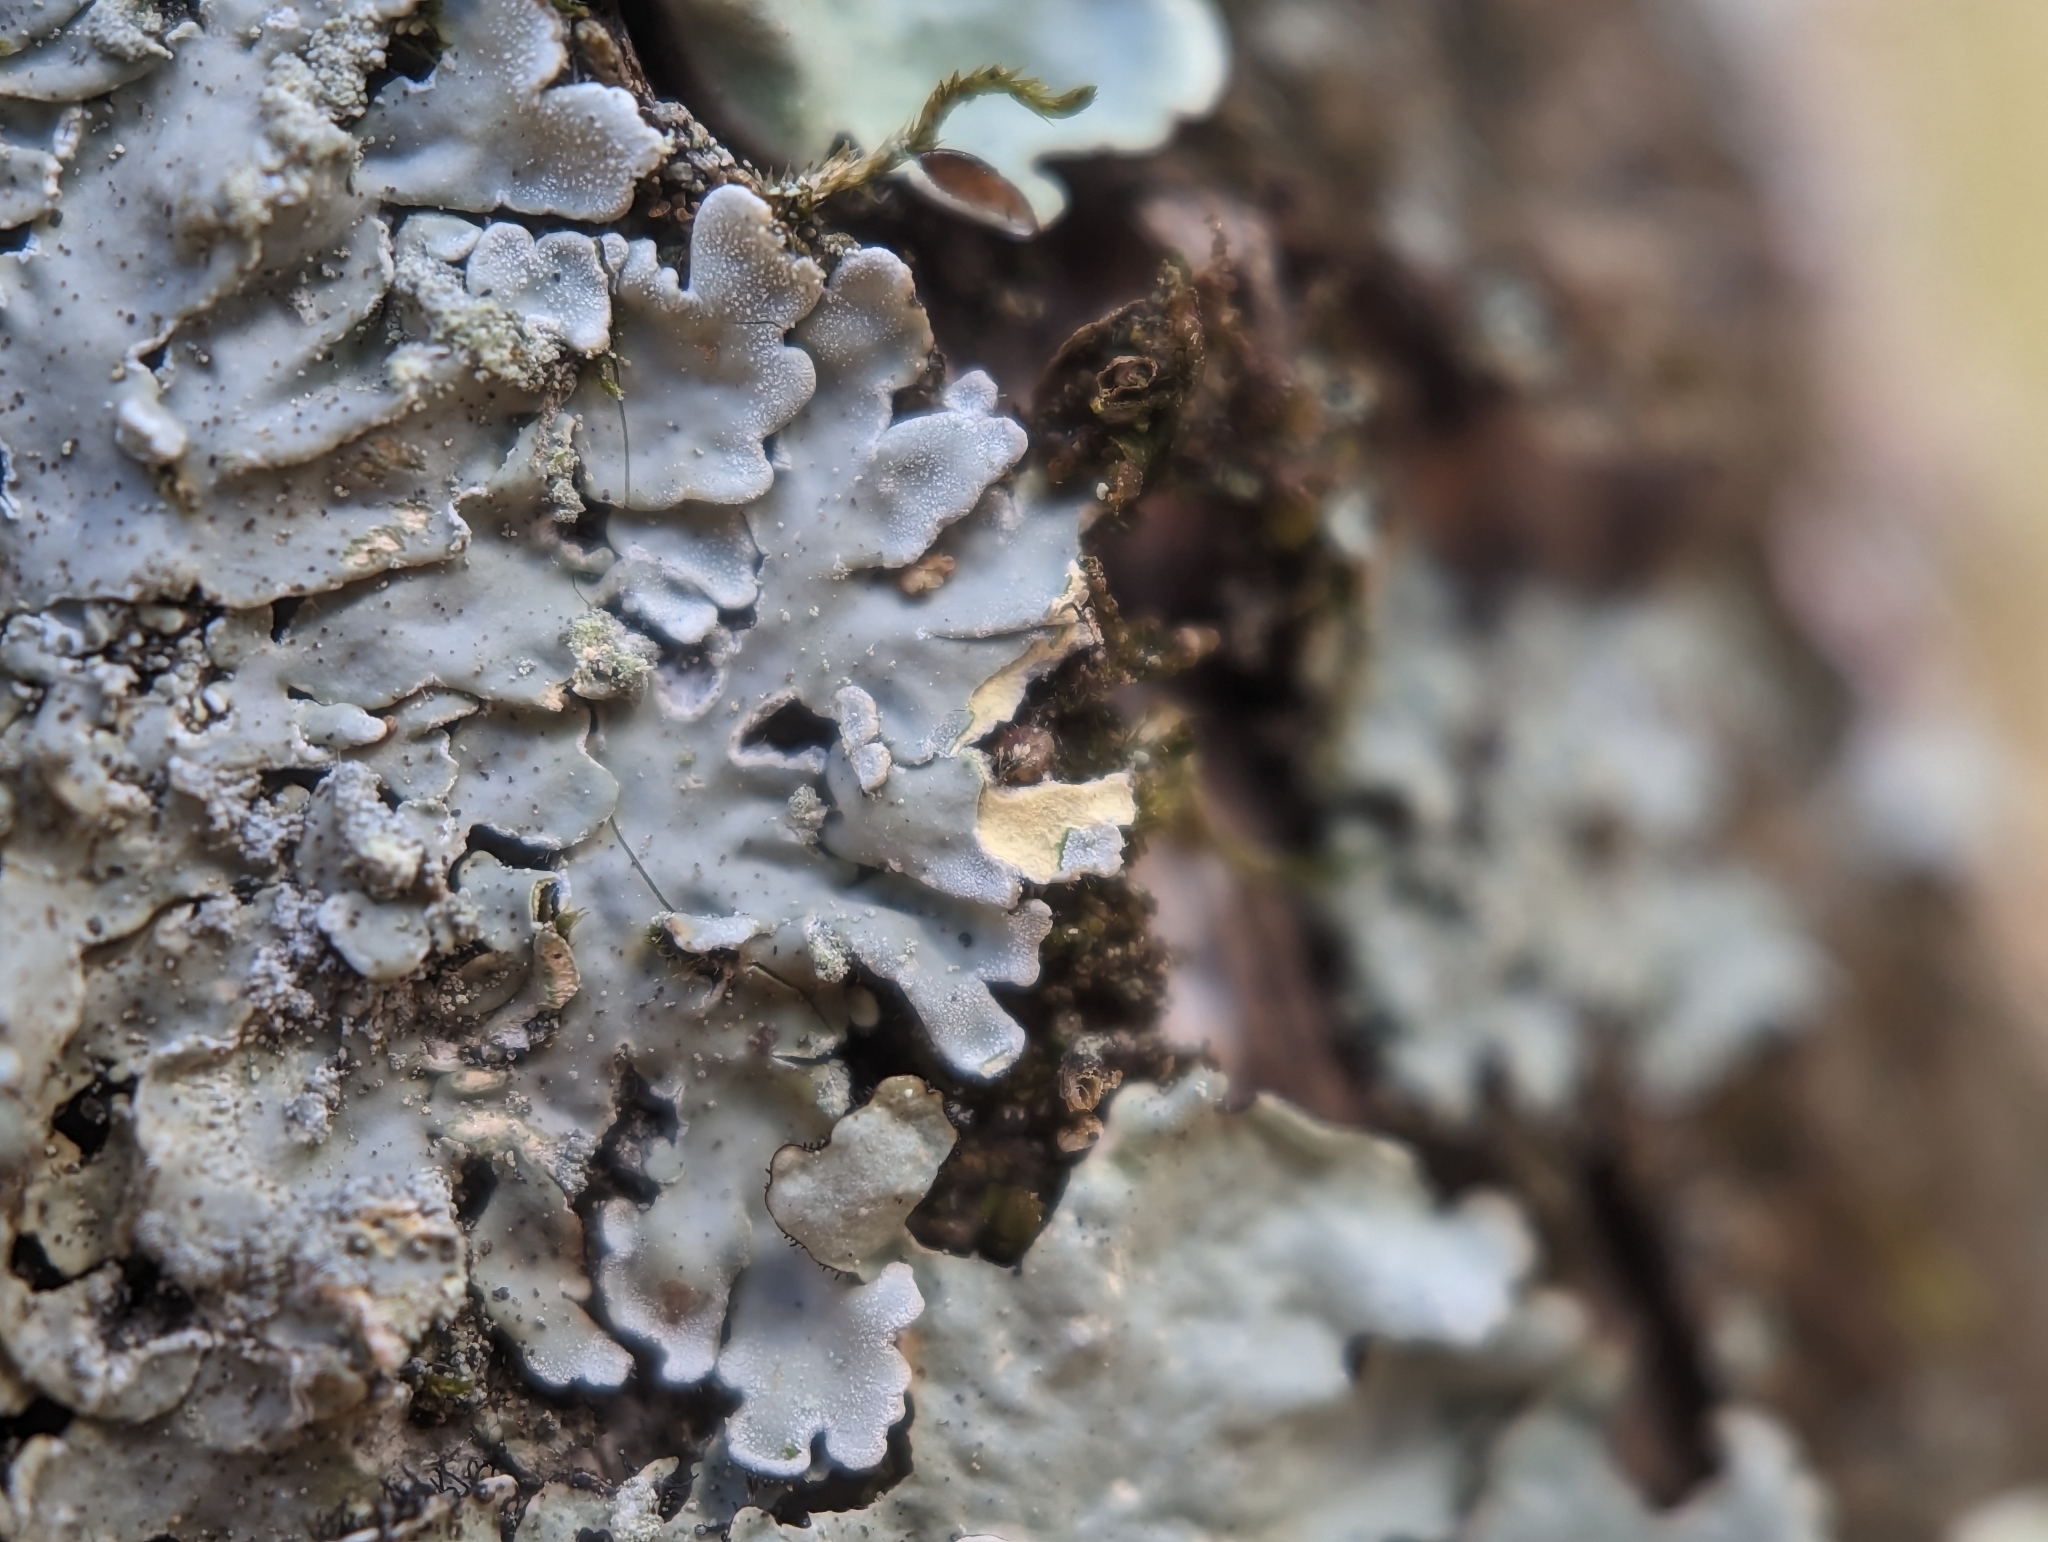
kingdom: Fungi
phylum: Ascomycota
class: Lecanoromycetes
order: Caliciales
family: Caliciaceae
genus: Pyxine
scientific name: Pyxine sorediata
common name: Mustard lichen
